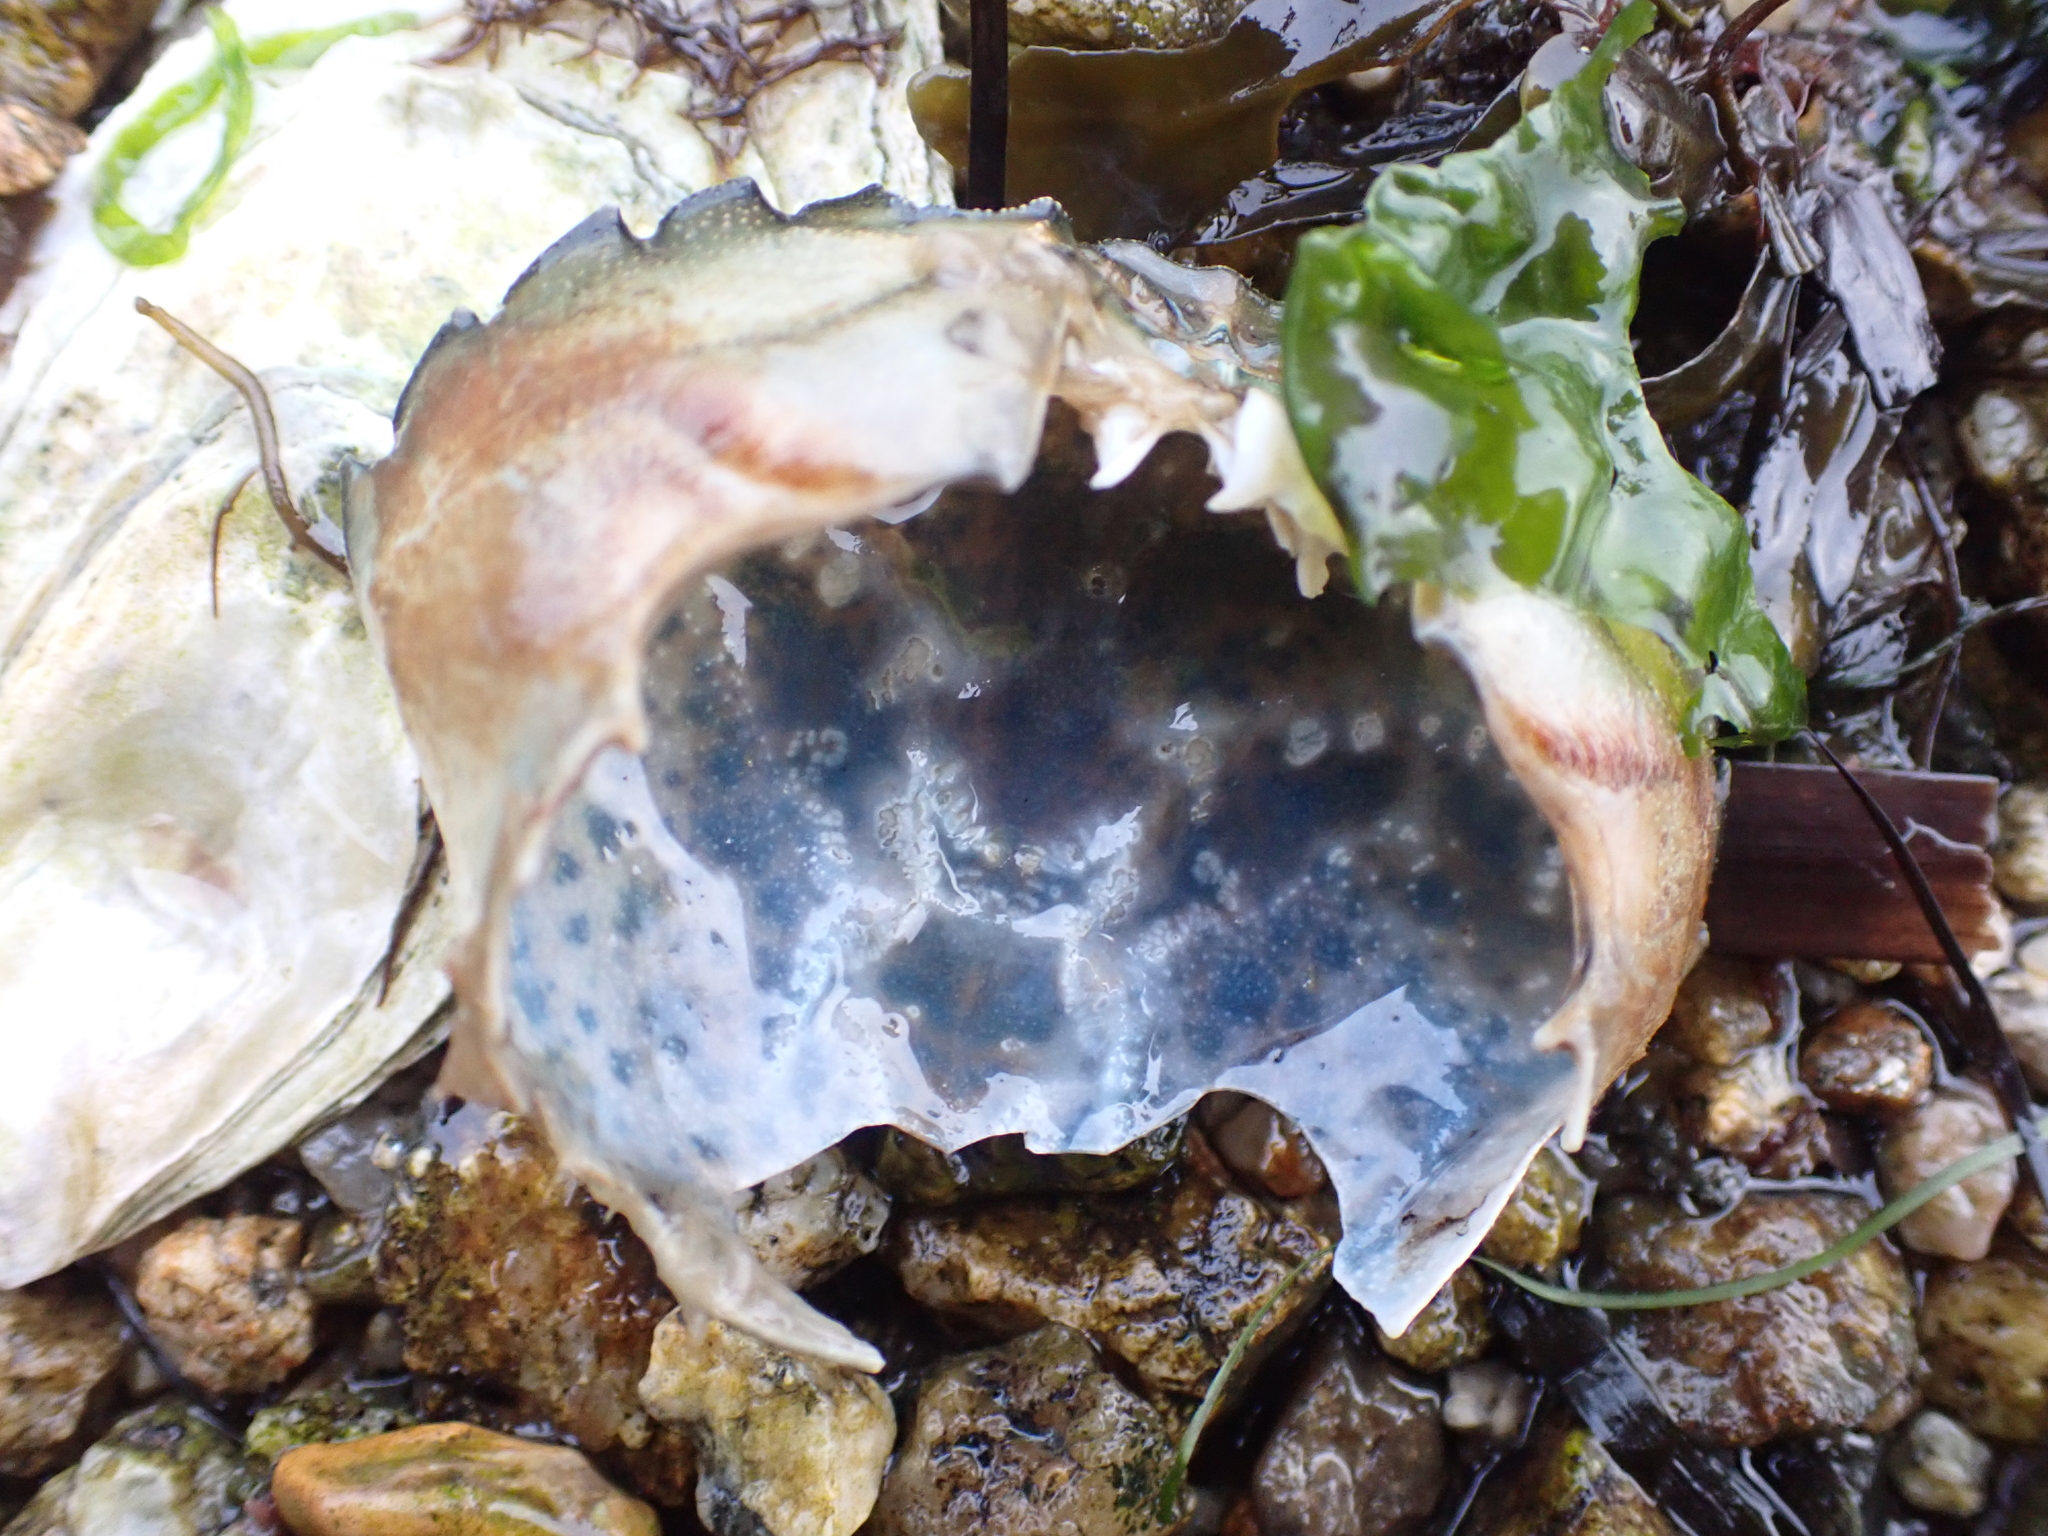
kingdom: Animalia
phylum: Arthropoda
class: Malacostraca
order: Decapoda
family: Carcinidae
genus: Carcinus
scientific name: Carcinus maenas
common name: European green crab
